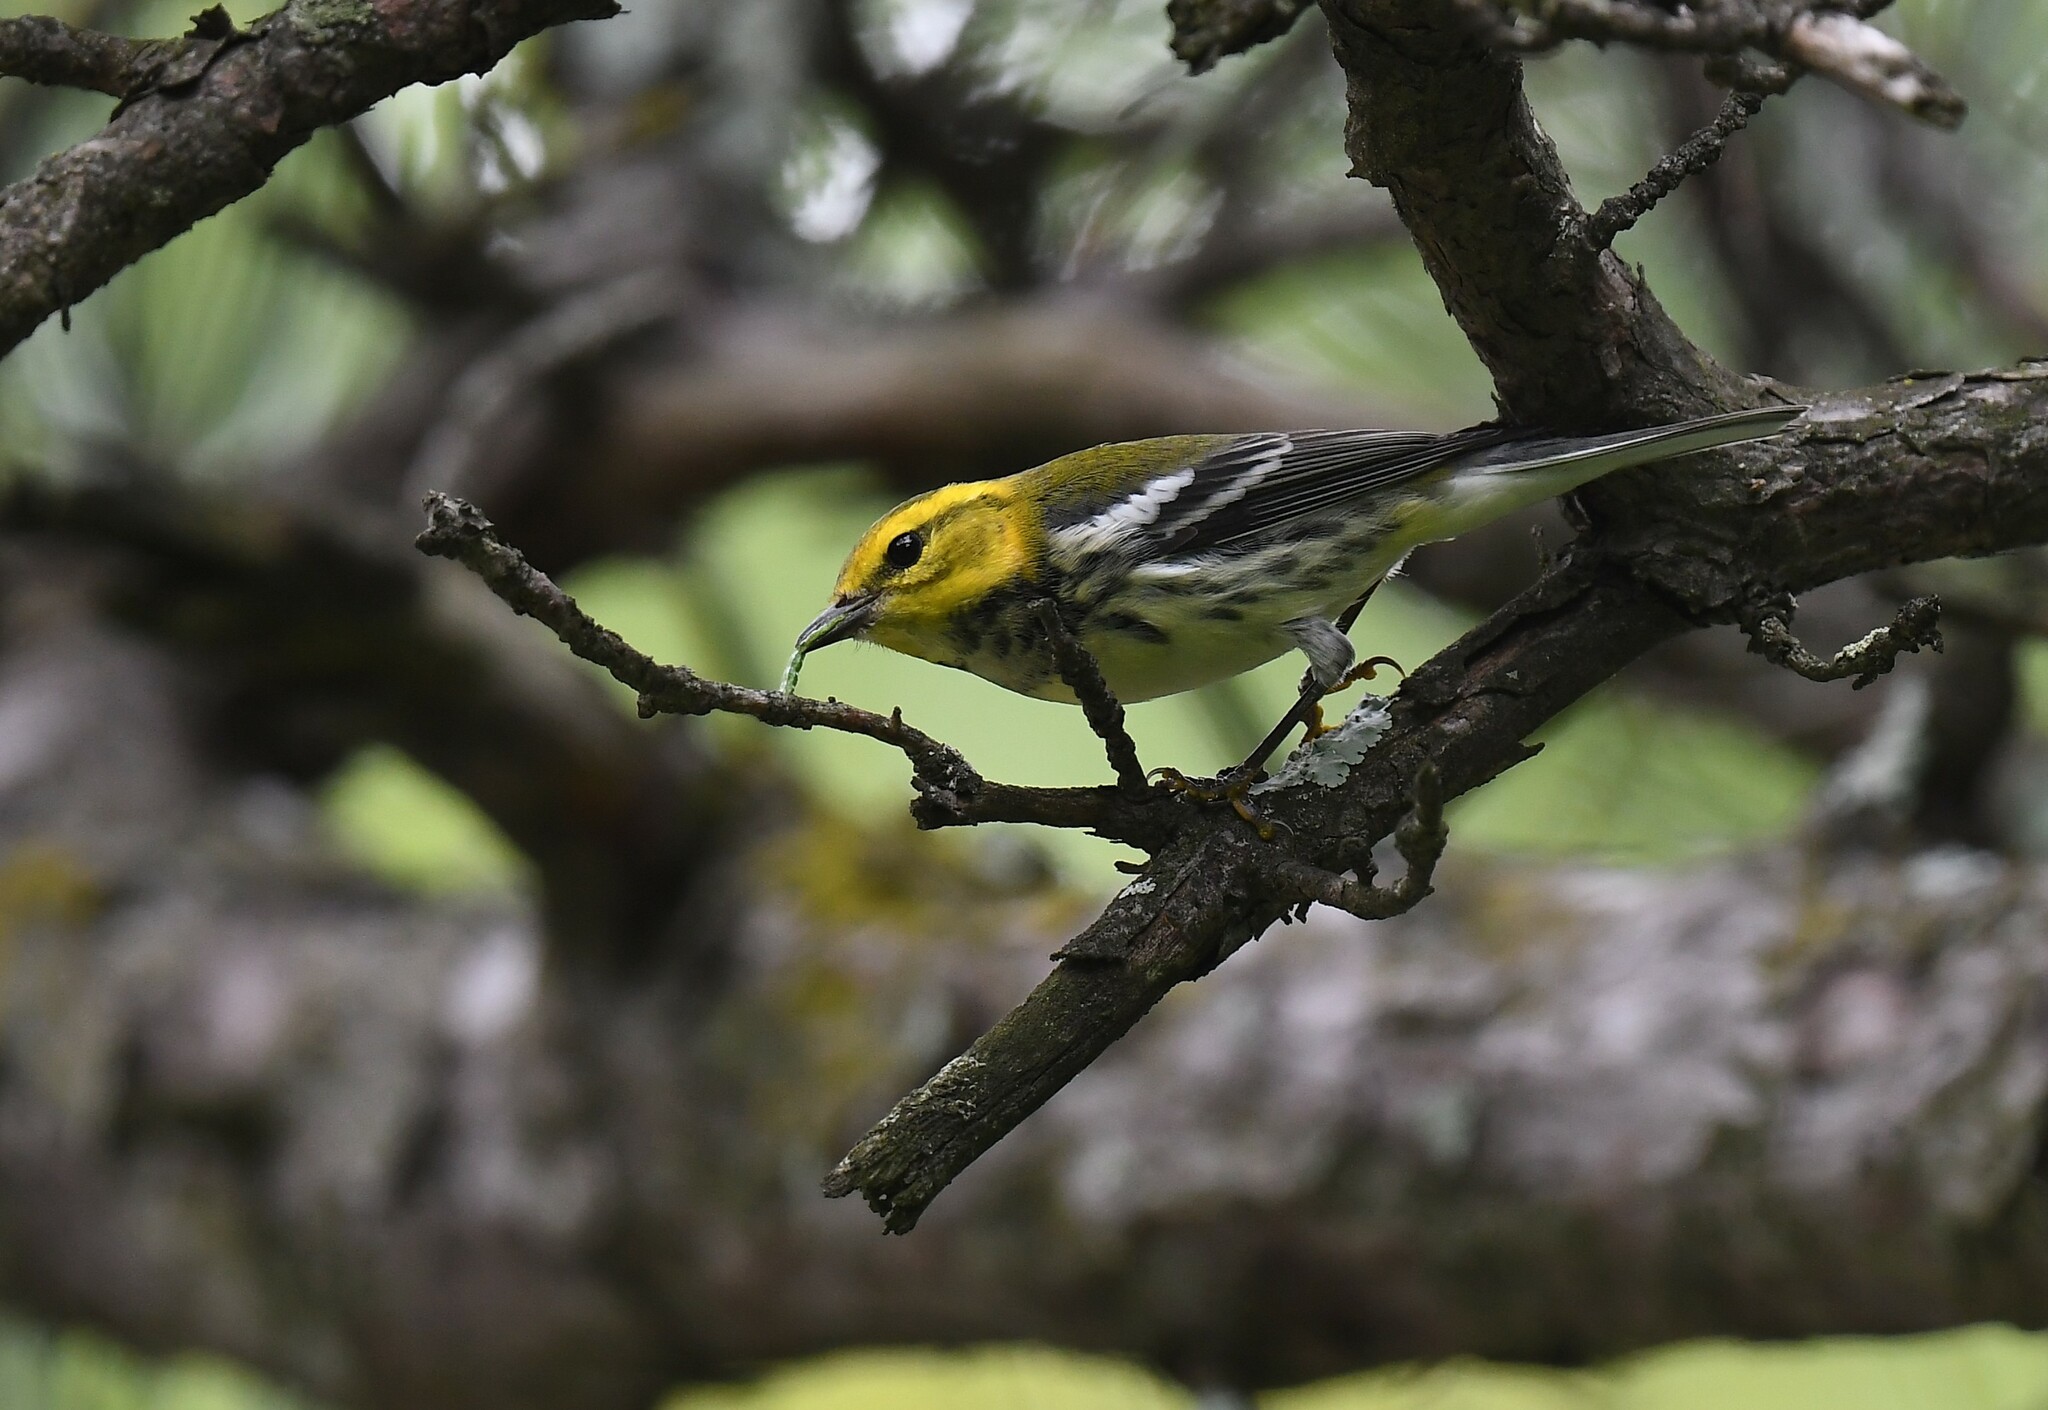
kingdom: Animalia
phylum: Chordata
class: Aves
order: Passeriformes
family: Parulidae
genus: Setophaga
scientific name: Setophaga virens
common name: Black-throated green warbler
